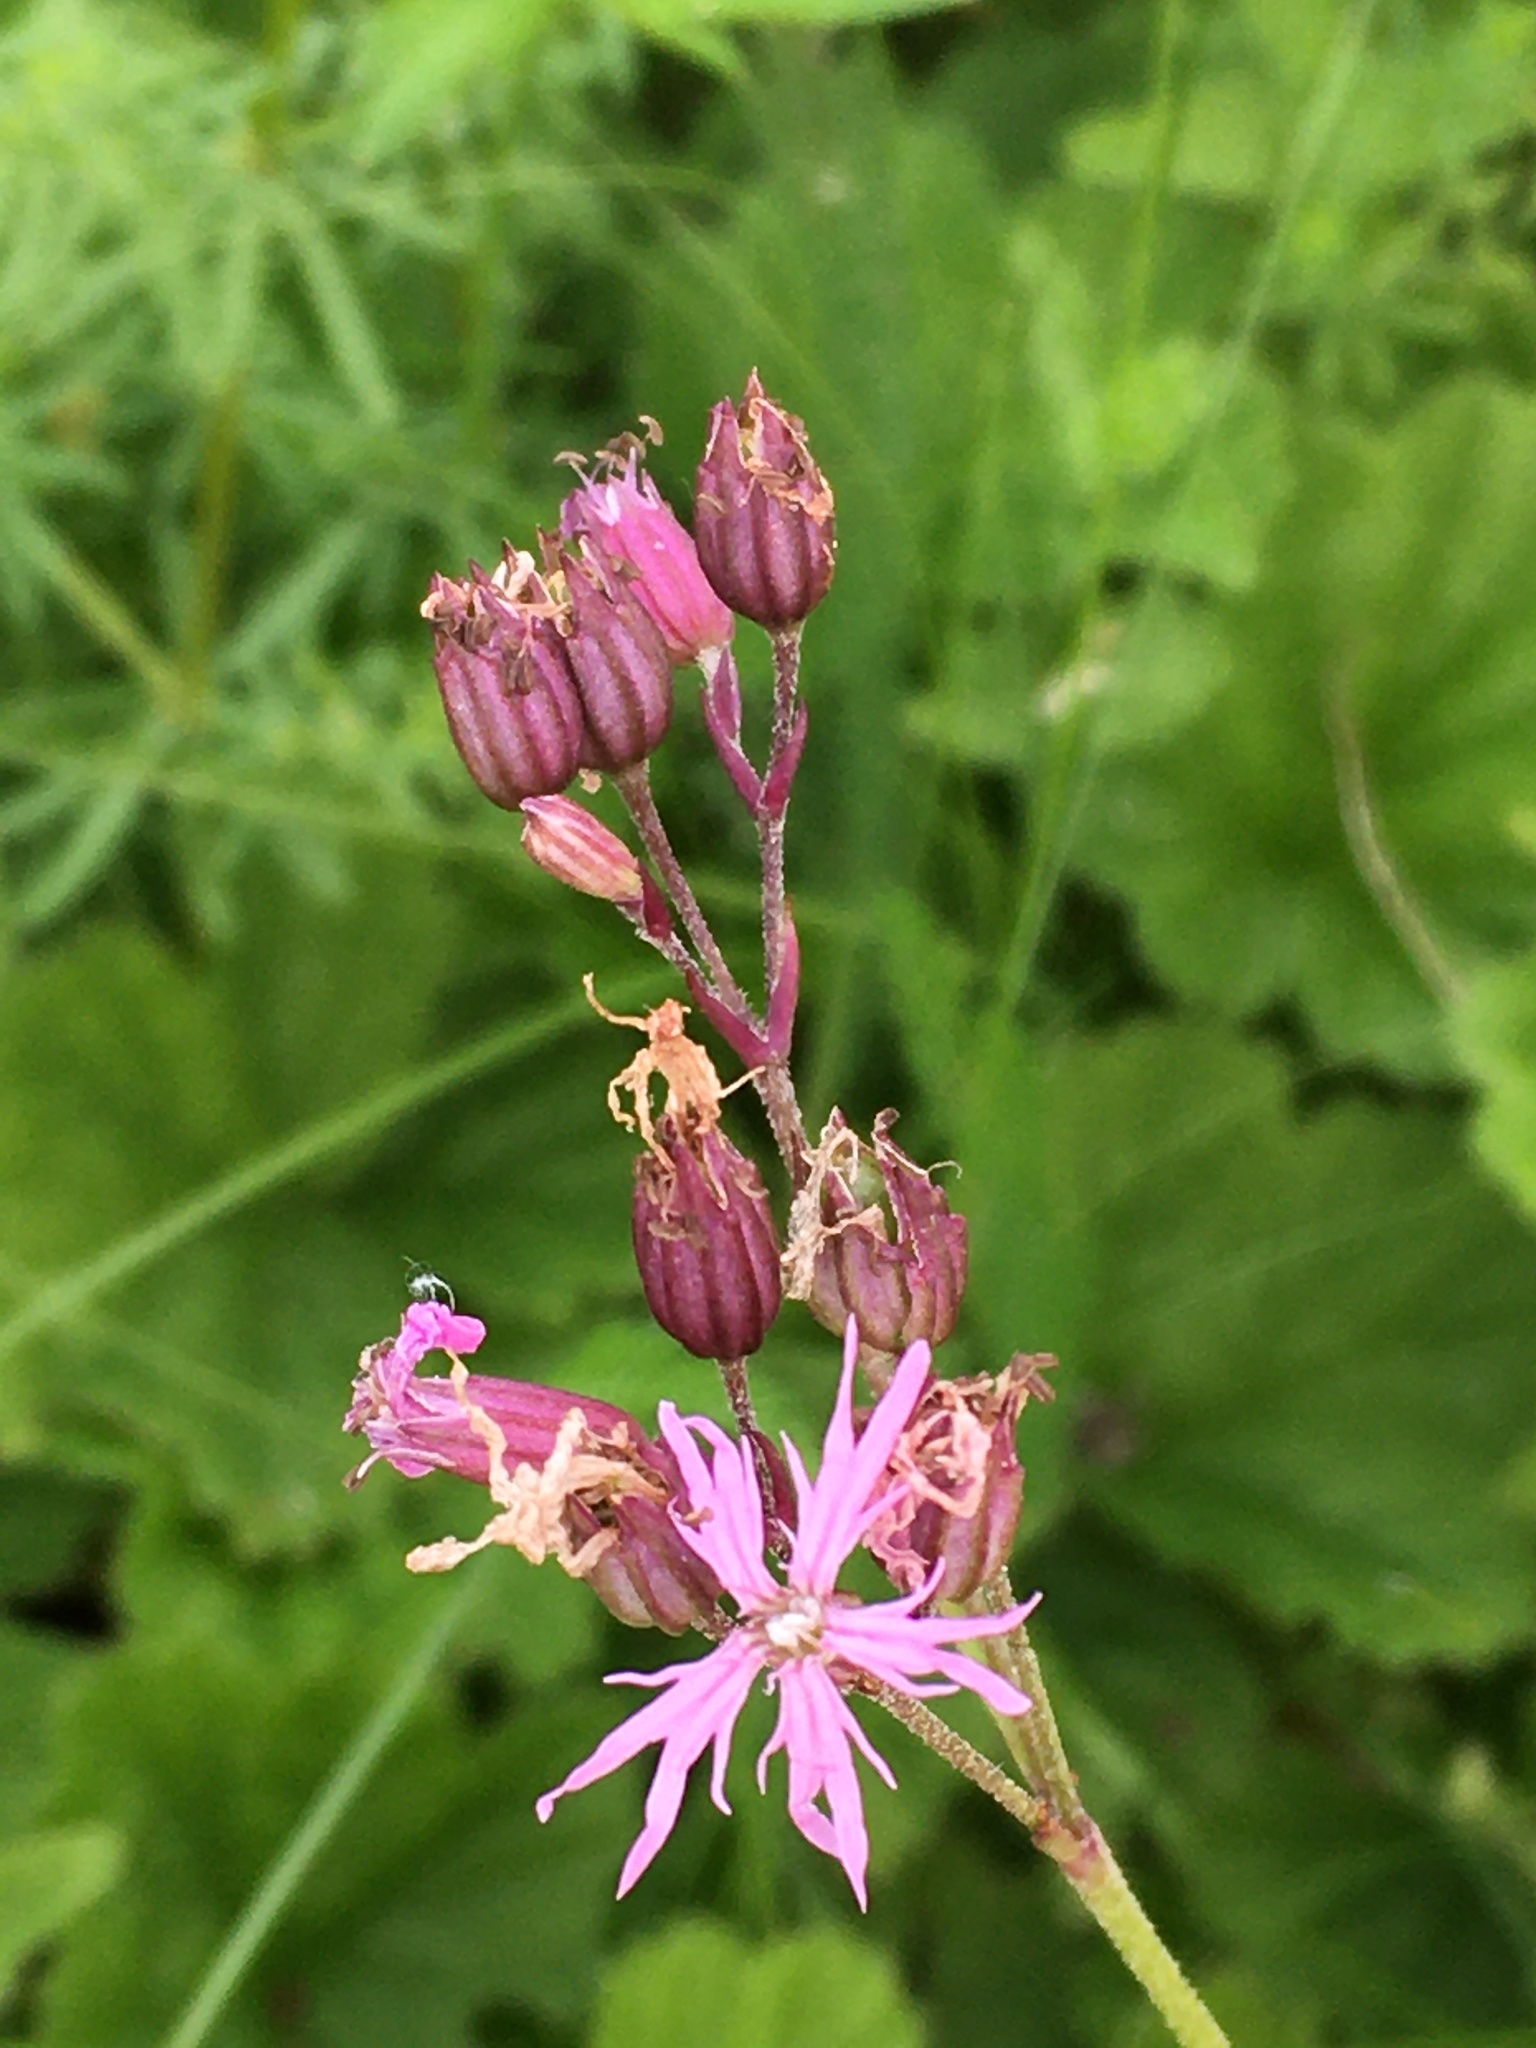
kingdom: Plantae
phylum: Tracheophyta
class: Magnoliopsida
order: Caryophyllales
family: Caryophyllaceae
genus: Silene
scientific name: Silene flos-cuculi
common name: Ragged-robin
